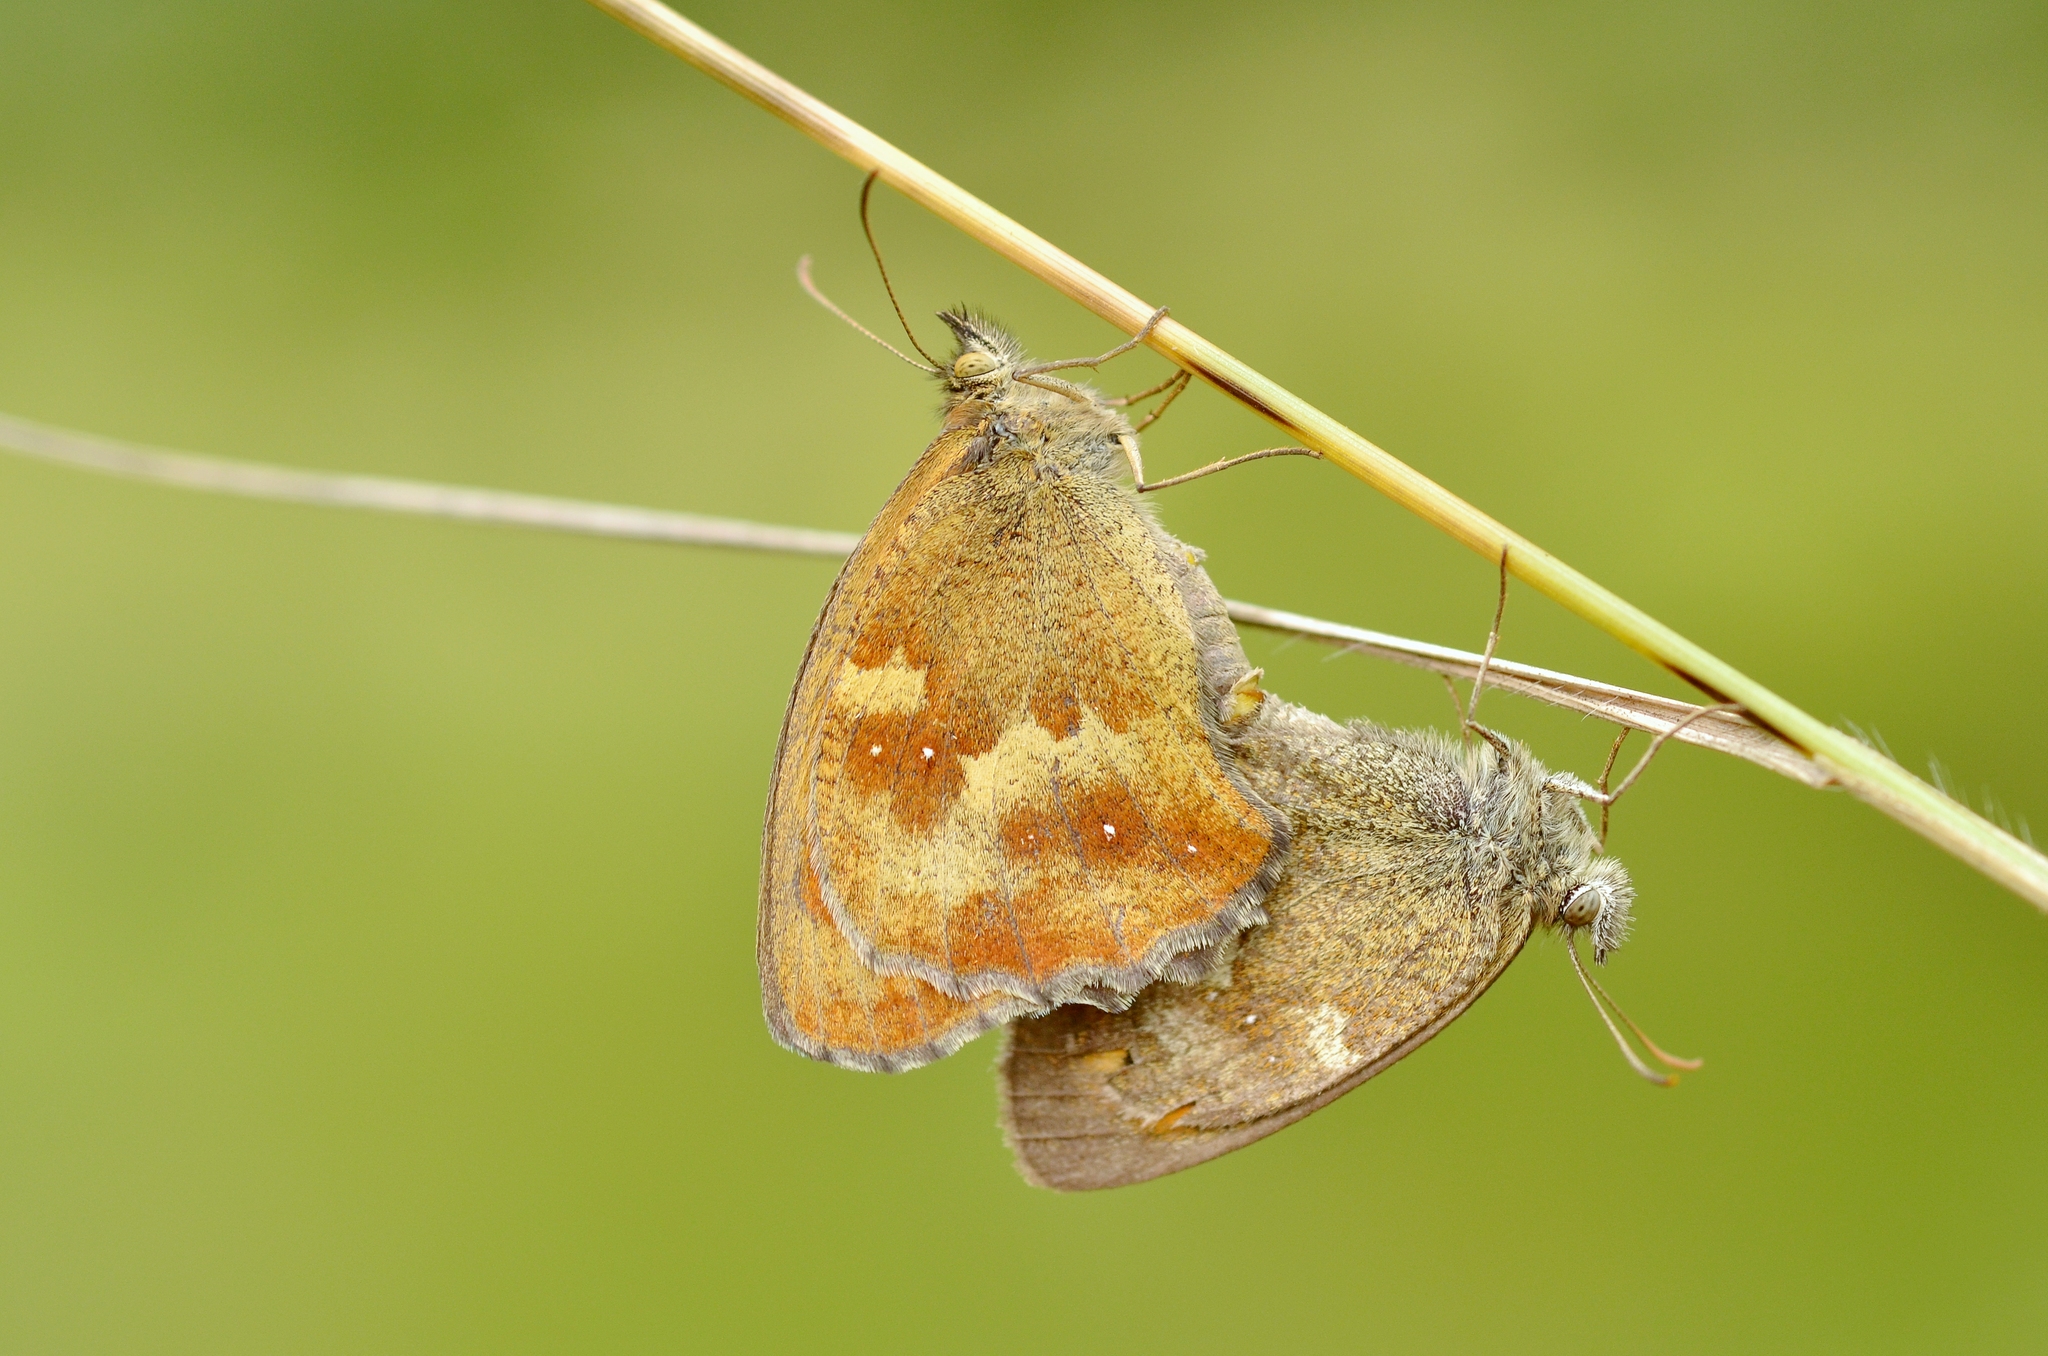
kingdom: Animalia
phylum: Arthropoda
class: Insecta
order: Lepidoptera
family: Nymphalidae
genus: Pyronia
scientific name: Pyronia tithonus
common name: Gatekeeper
